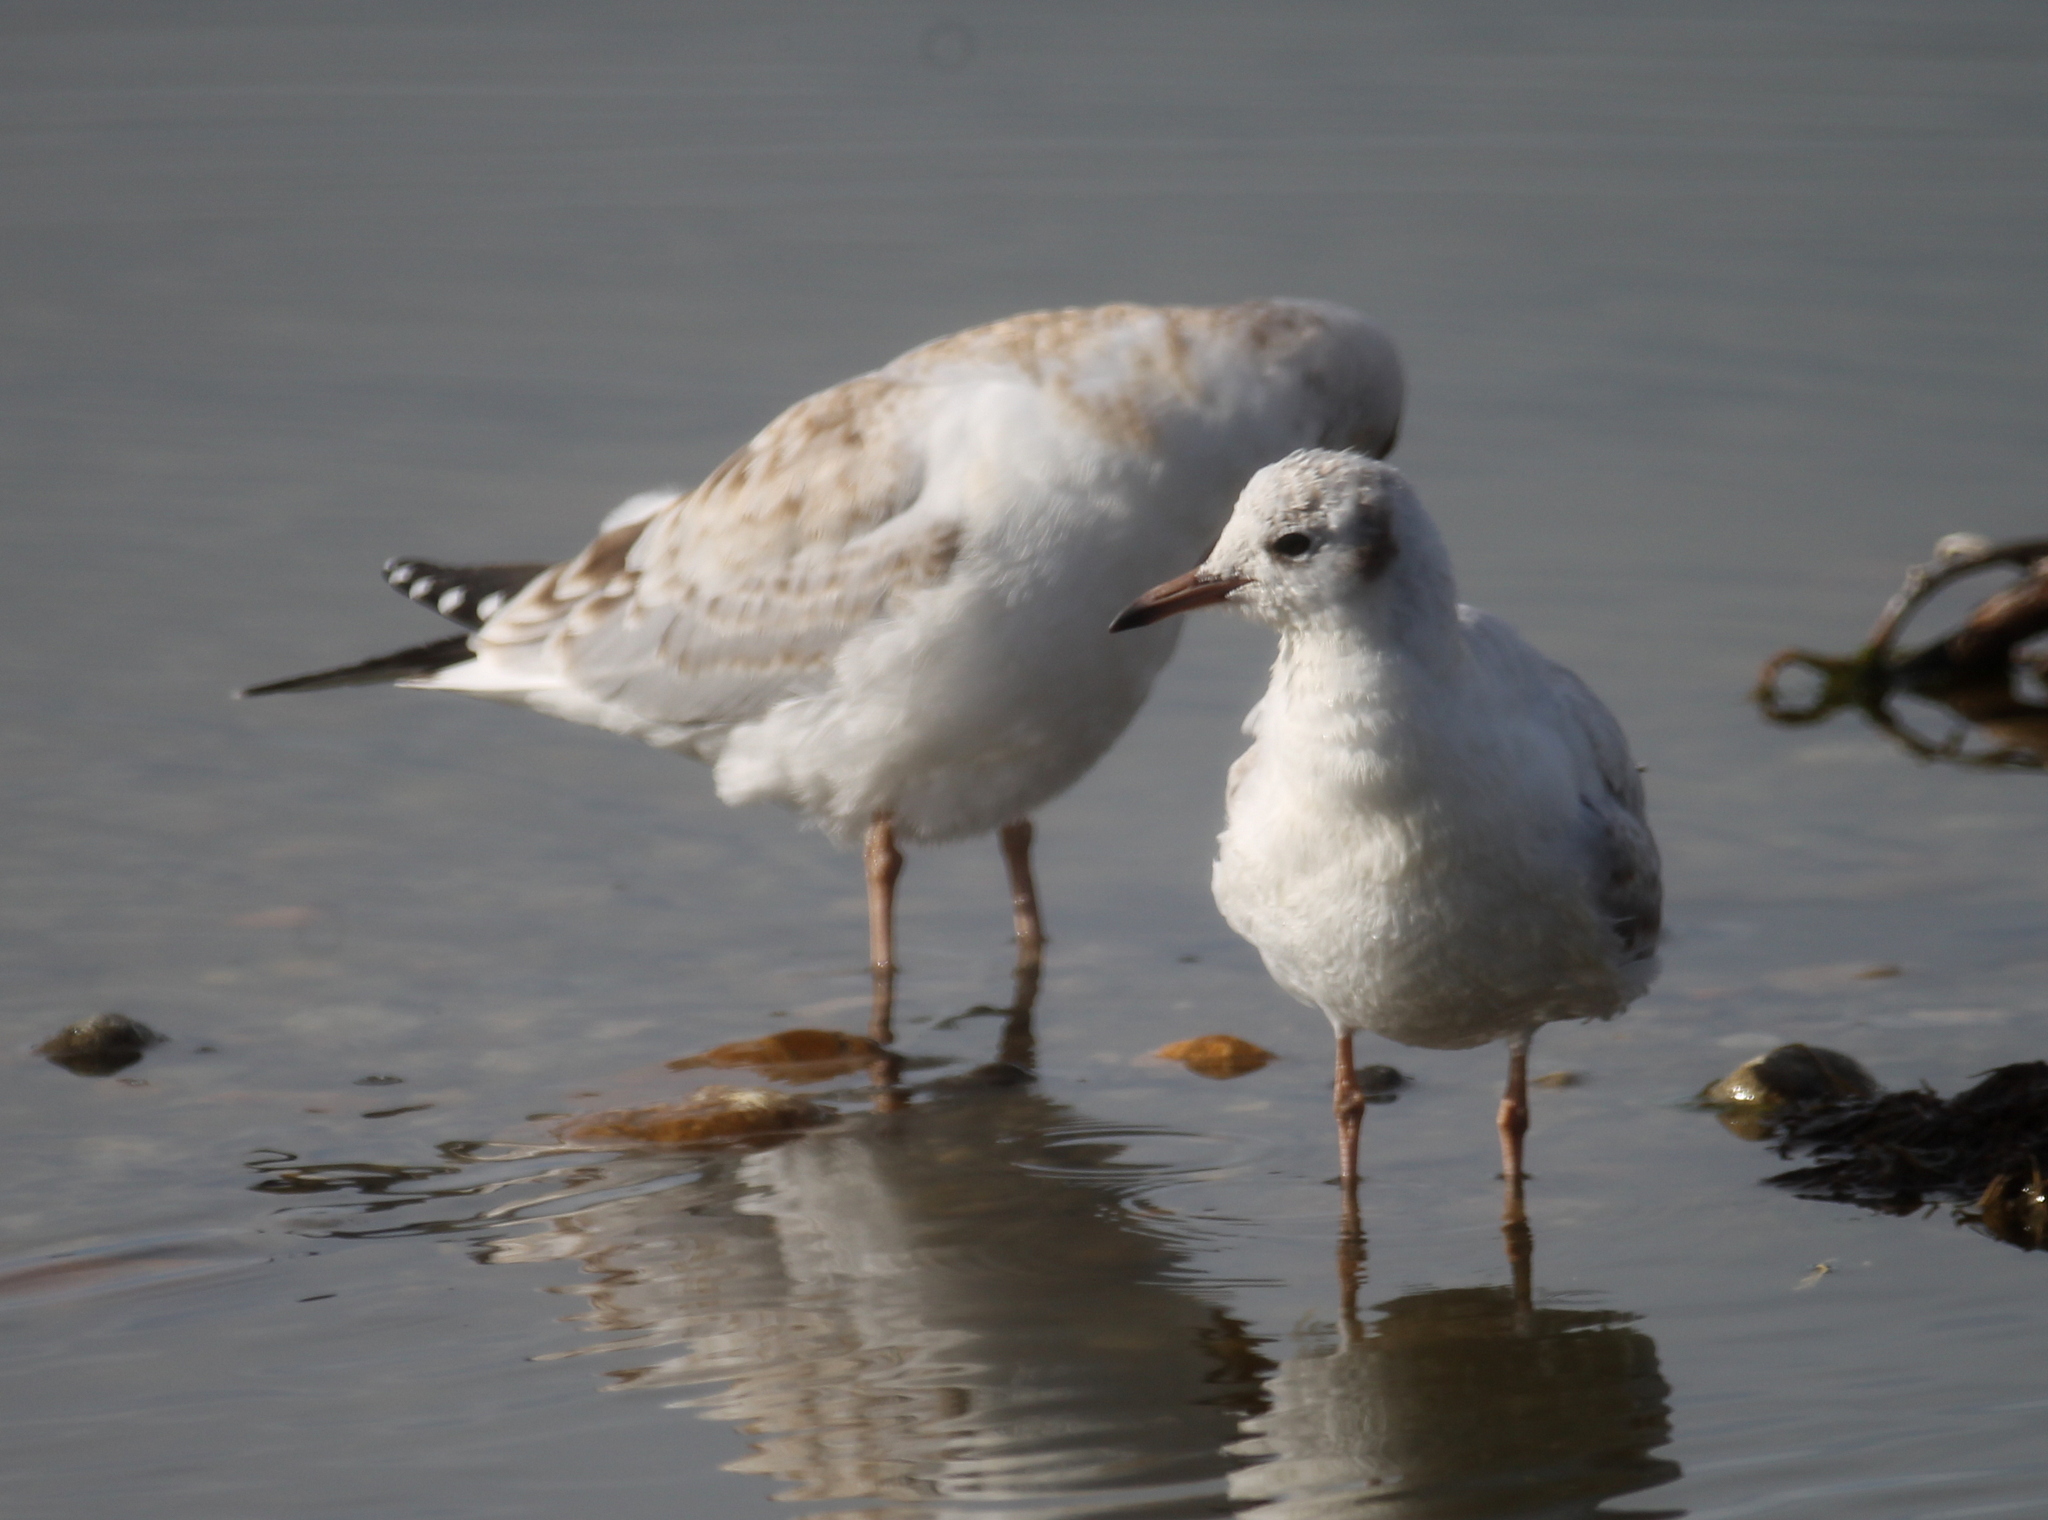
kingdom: Animalia
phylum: Chordata
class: Aves
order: Charadriiformes
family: Laridae
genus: Chroicocephalus
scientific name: Chroicocephalus maculipennis
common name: Brown-hooded gull
